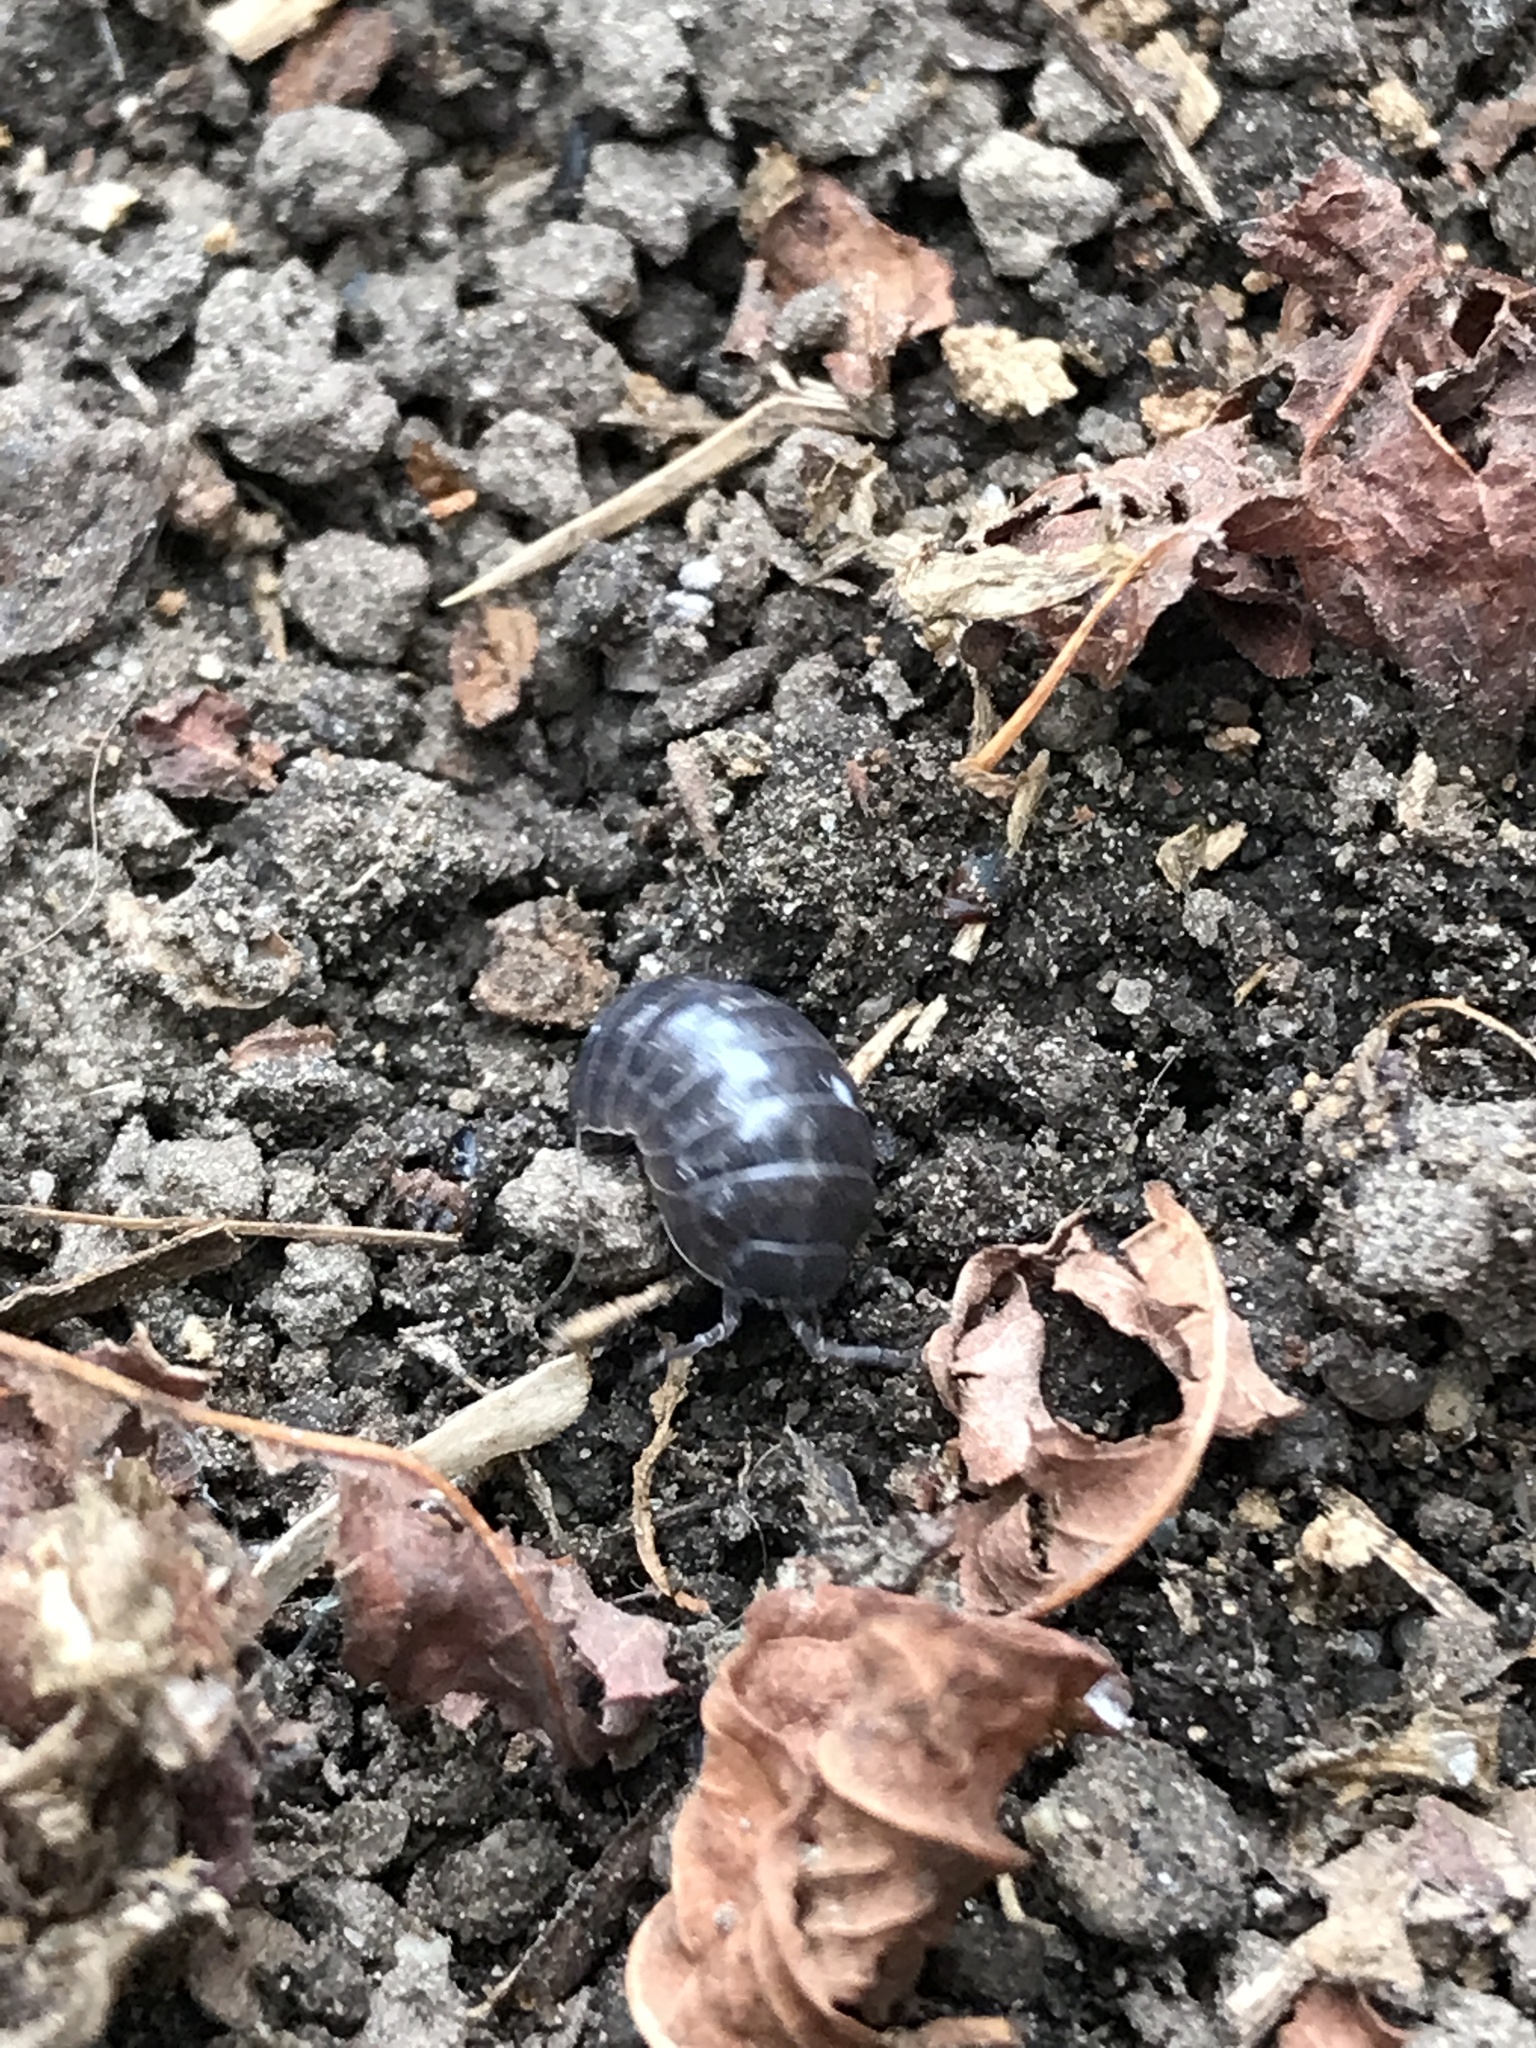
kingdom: Animalia
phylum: Arthropoda
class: Malacostraca
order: Isopoda
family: Armadillidiidae
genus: Armadillidium
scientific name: Armadillidium vulgare
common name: Common pill woodlouse
